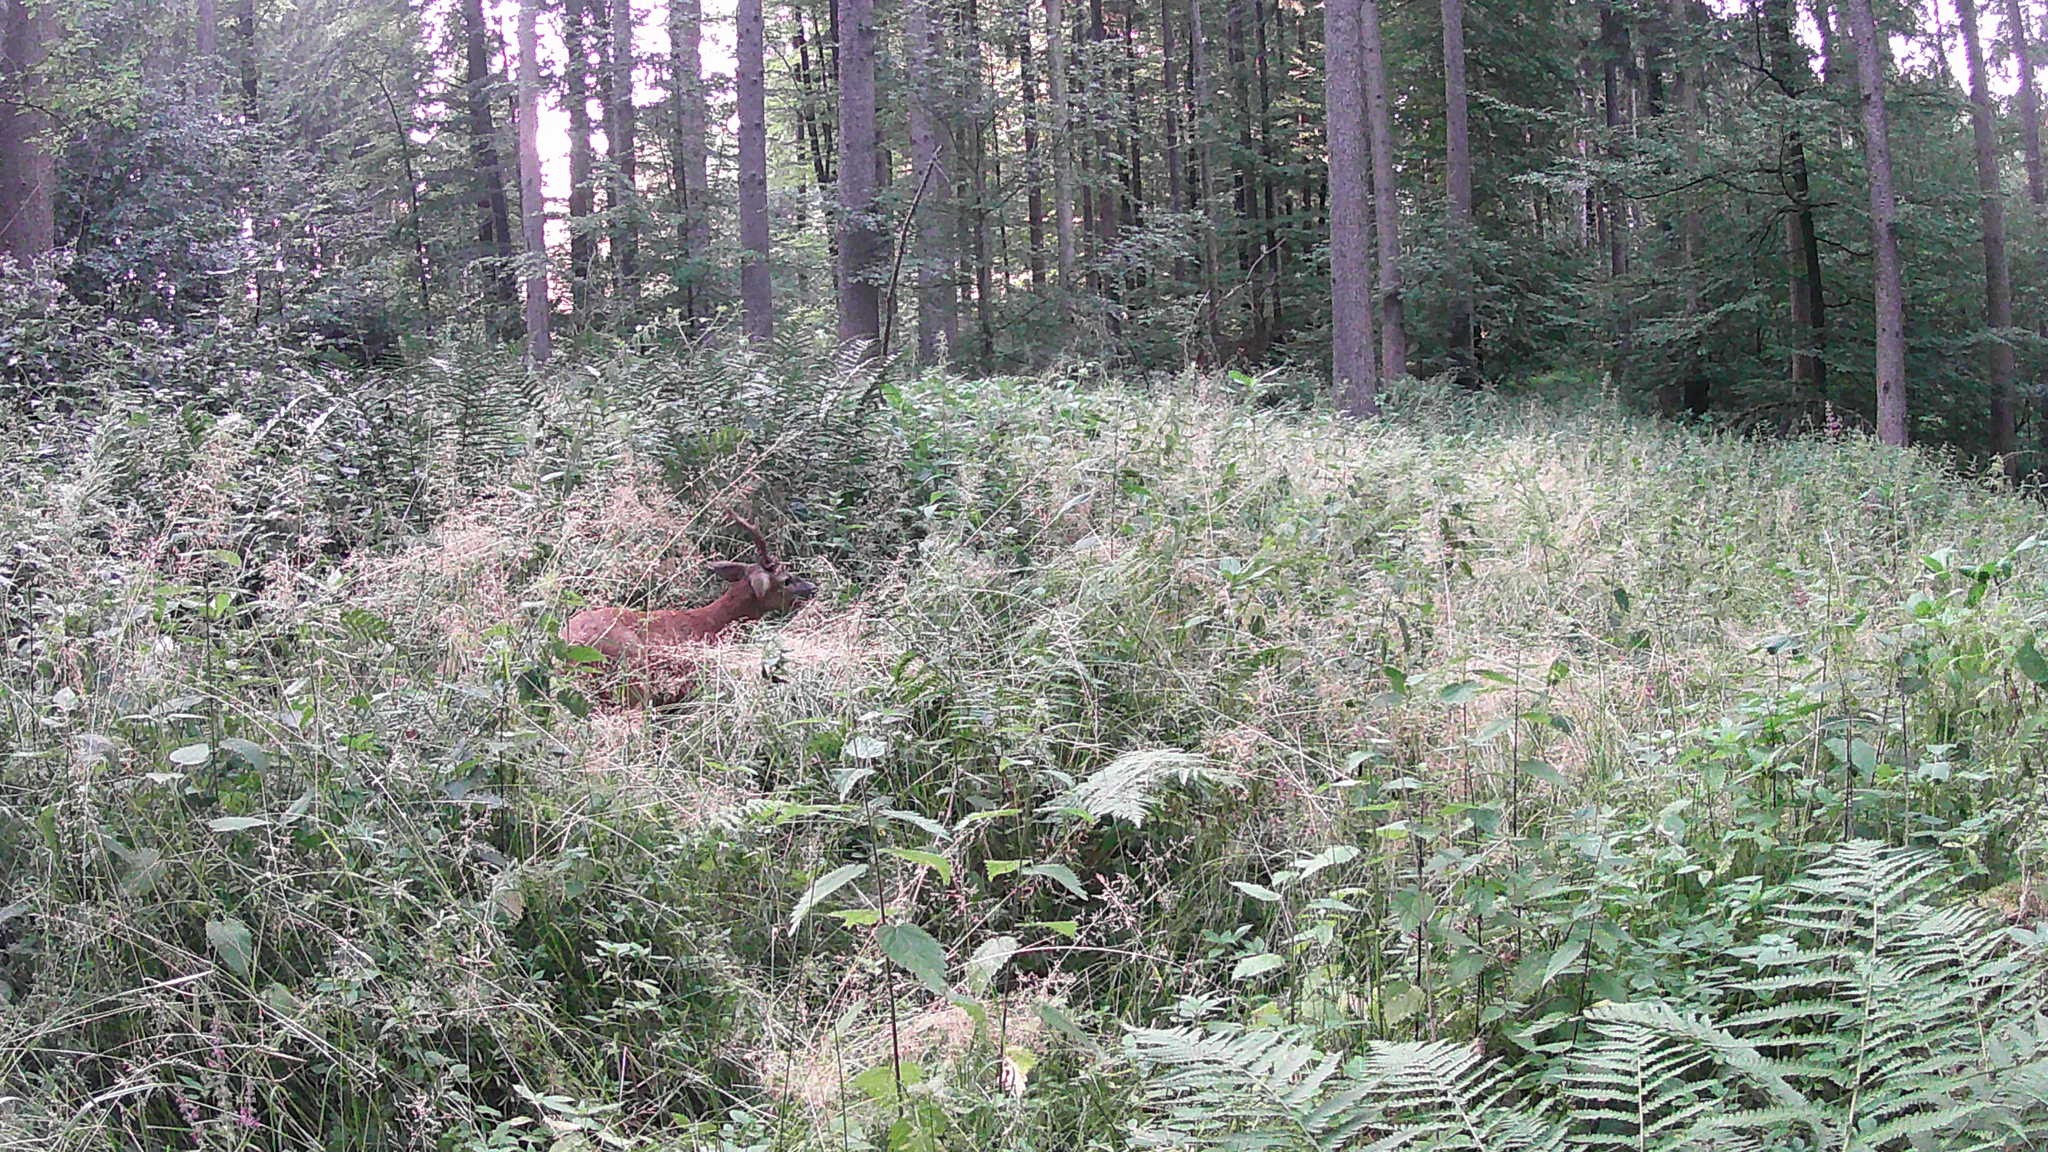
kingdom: Animalia
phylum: Chordata
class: Mammalia
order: Artiodactyla
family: Cervidae
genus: Capreolus
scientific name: Capreolus capreolus
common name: Western roe deer
